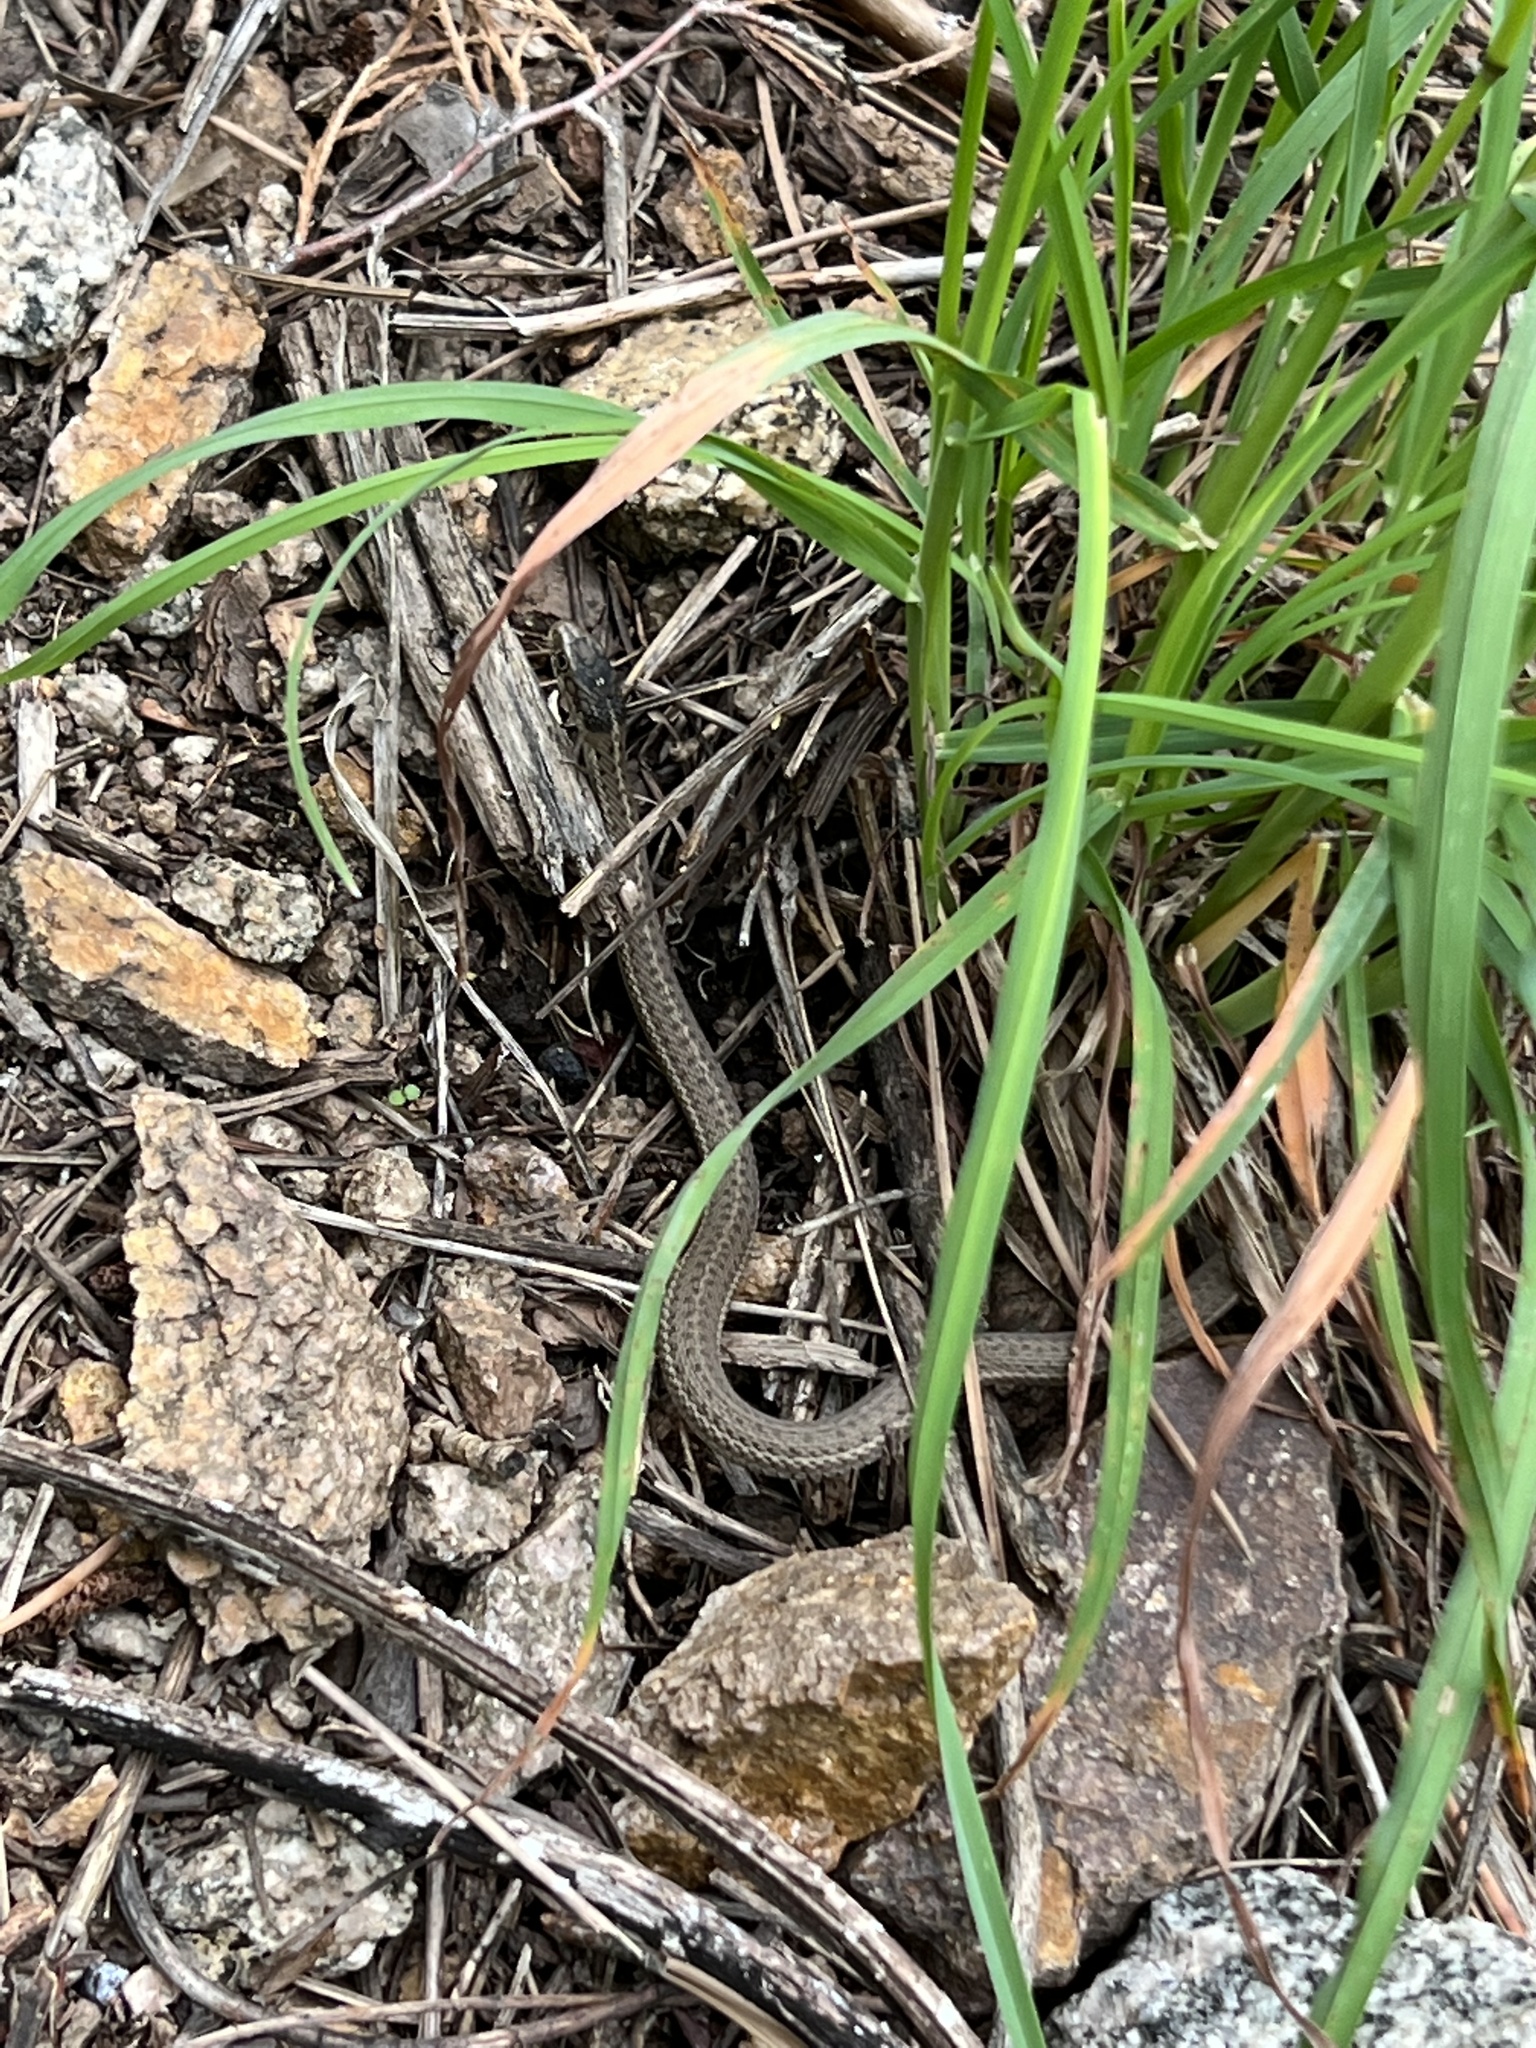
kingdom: Animalia
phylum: Chordata
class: Squamata
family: Colubridae
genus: Thamnophis
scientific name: Thamnophis elegans
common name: Western terrestrial garter snake
